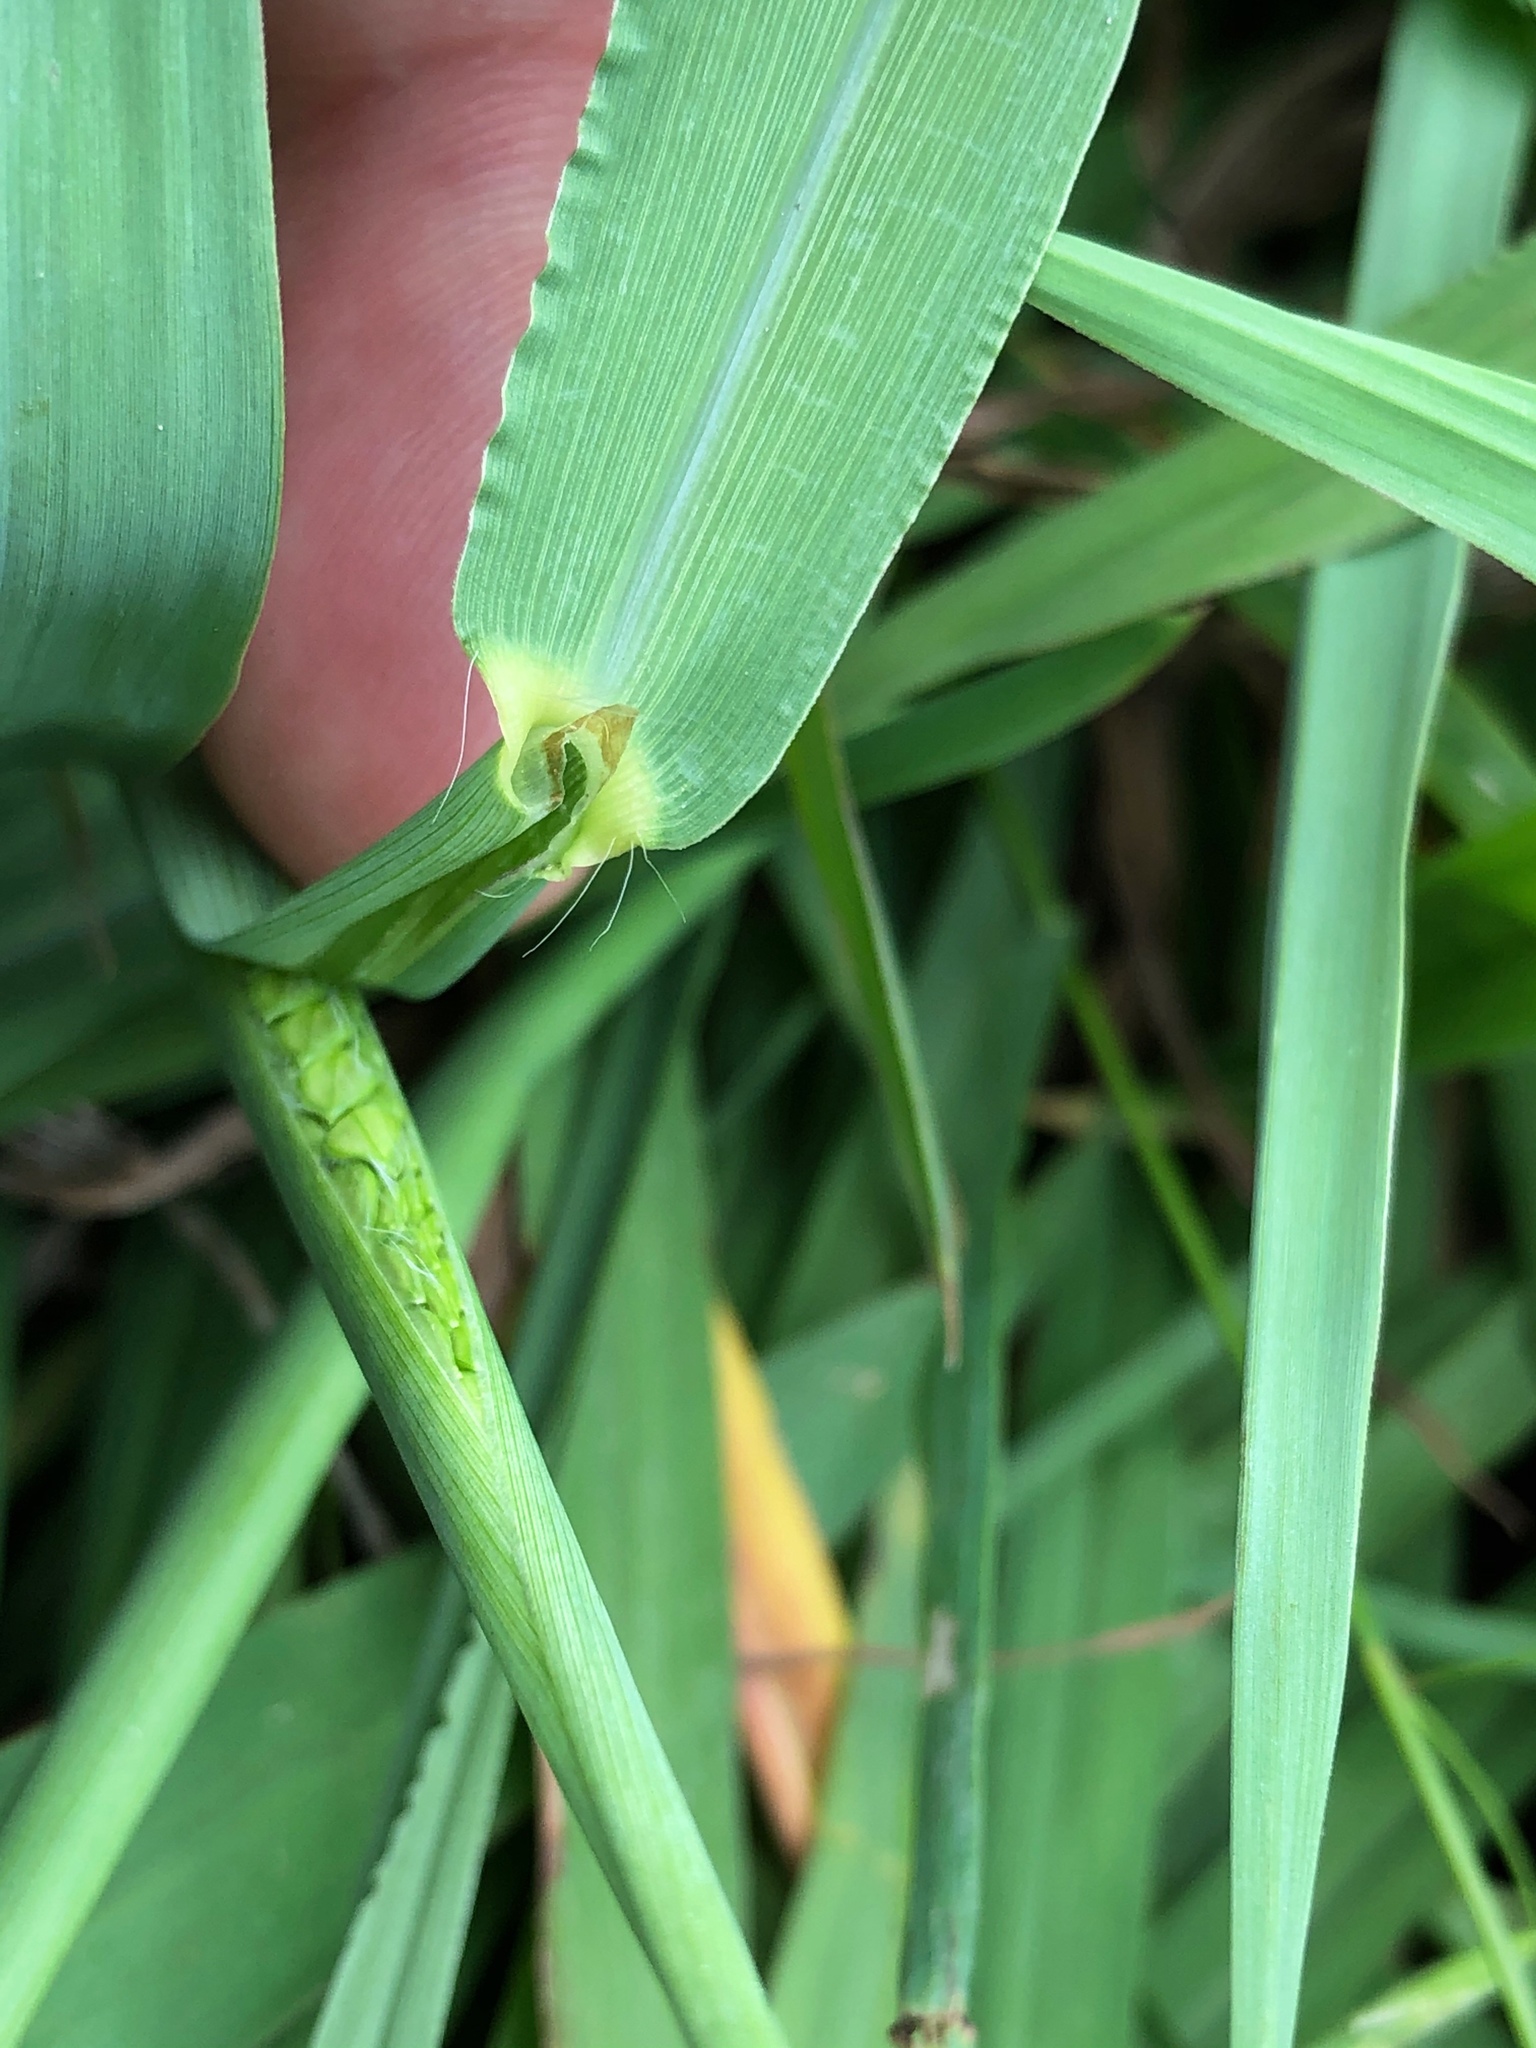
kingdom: Plantae
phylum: Tracheophyta
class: Liliopsida
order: Poales
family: Poaceae
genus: Paspalum
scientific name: Paspalum dilatatum
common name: Dallisgrass
